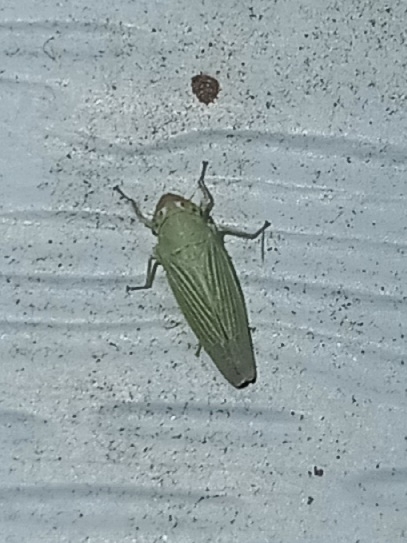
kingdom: Animalia
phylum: Arthropoda
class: Insecta
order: Hemiptera
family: Cicadellidae
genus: Xyphon
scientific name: Xyphon flaviceps
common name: Yellowheaded leafhopper
